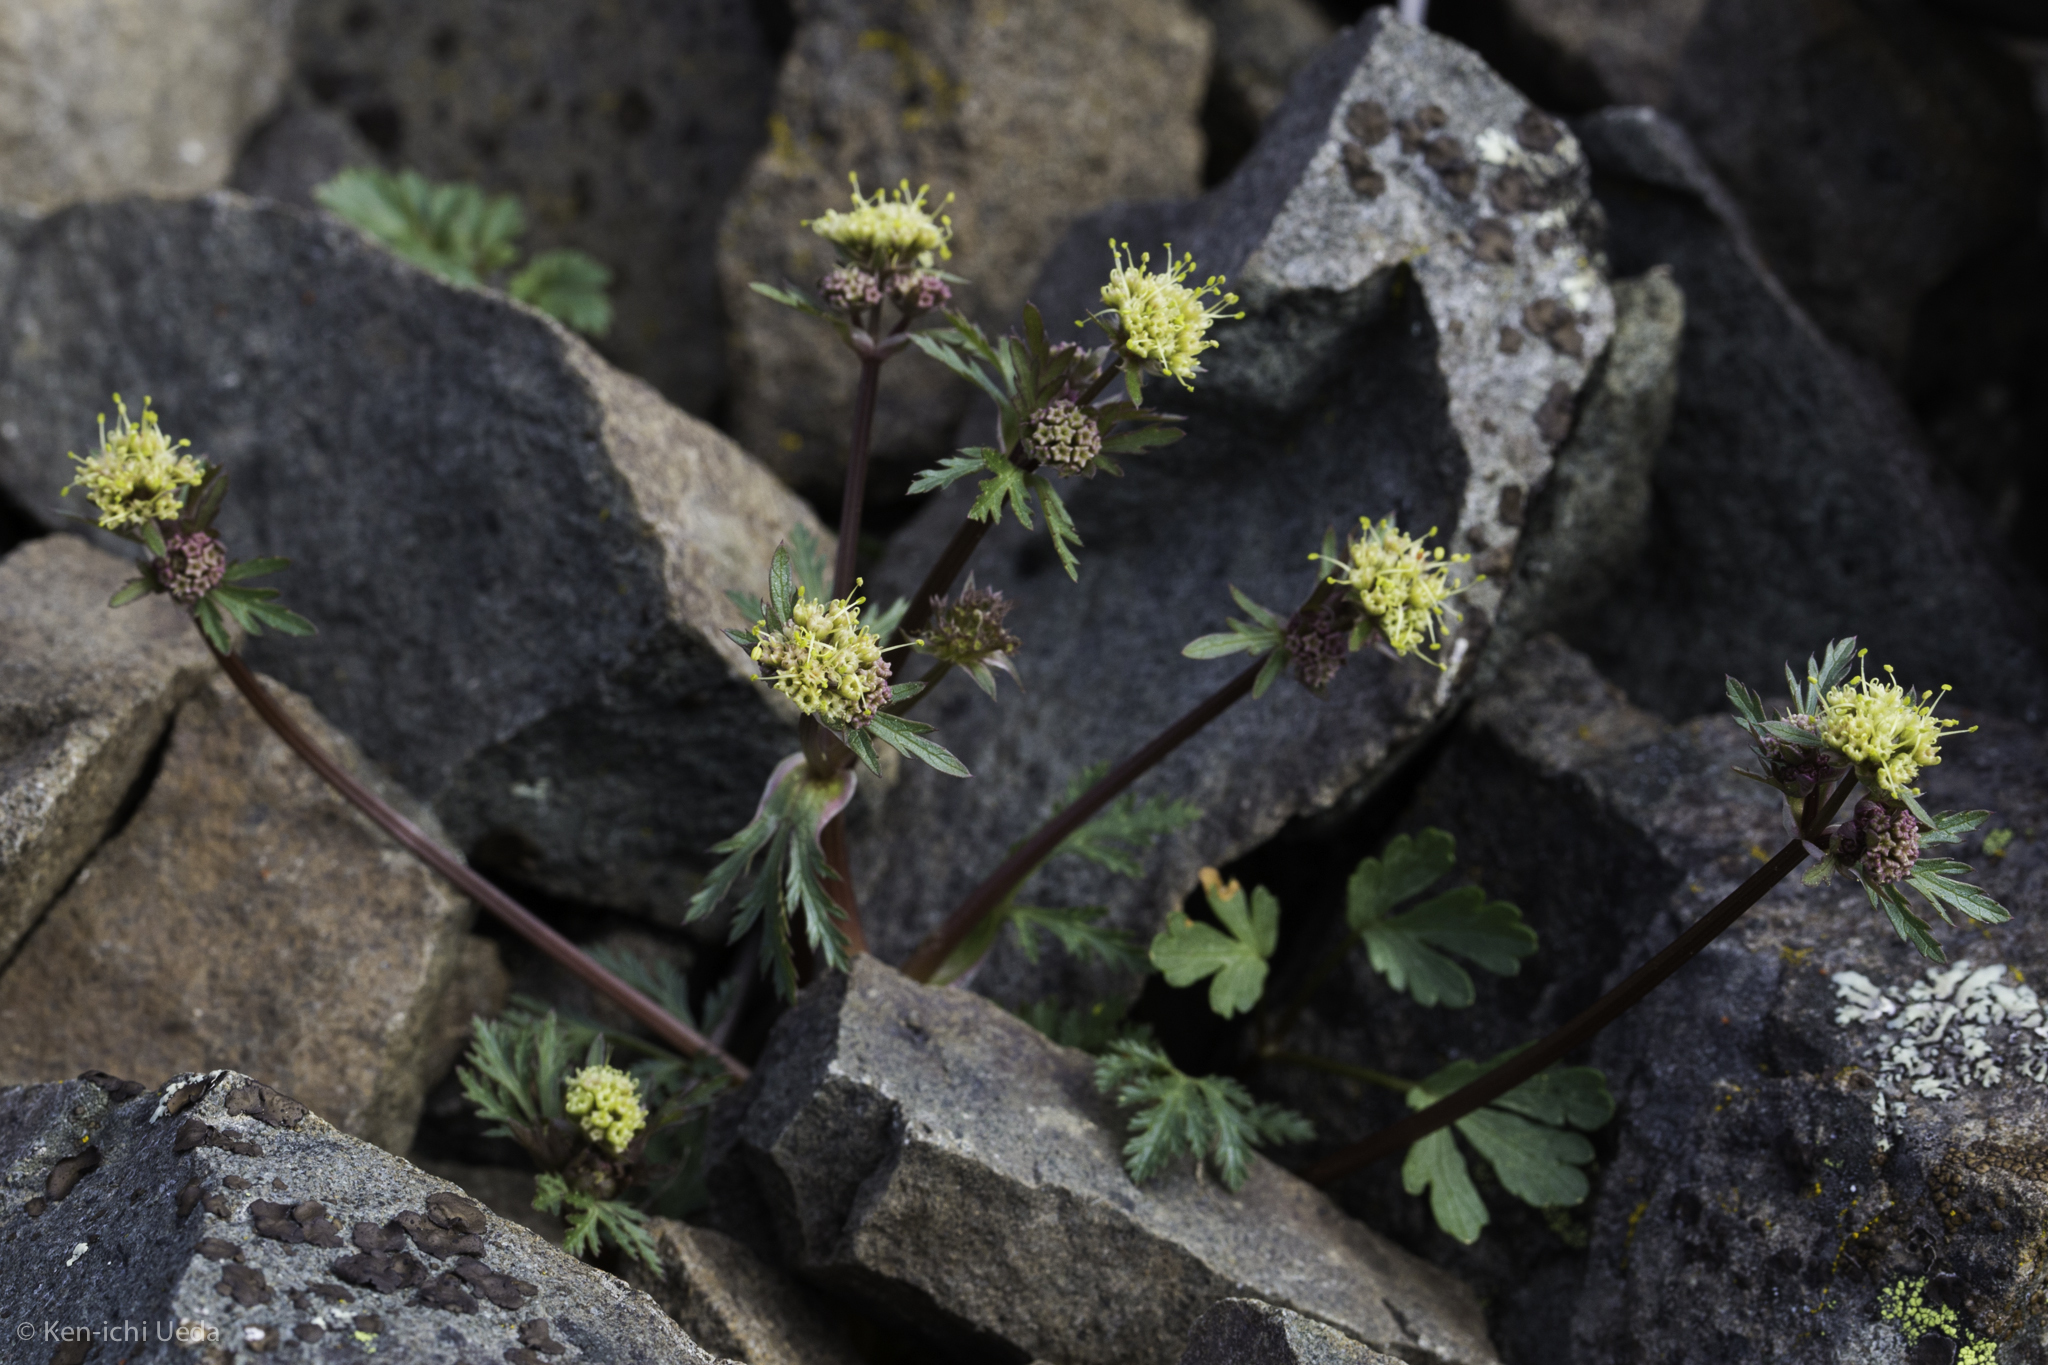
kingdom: Plantae
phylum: Tracheophyta
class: Magnoliopsida
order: Apiales
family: Apiaceae
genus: Sanicula
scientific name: Sanicula saxatilis
